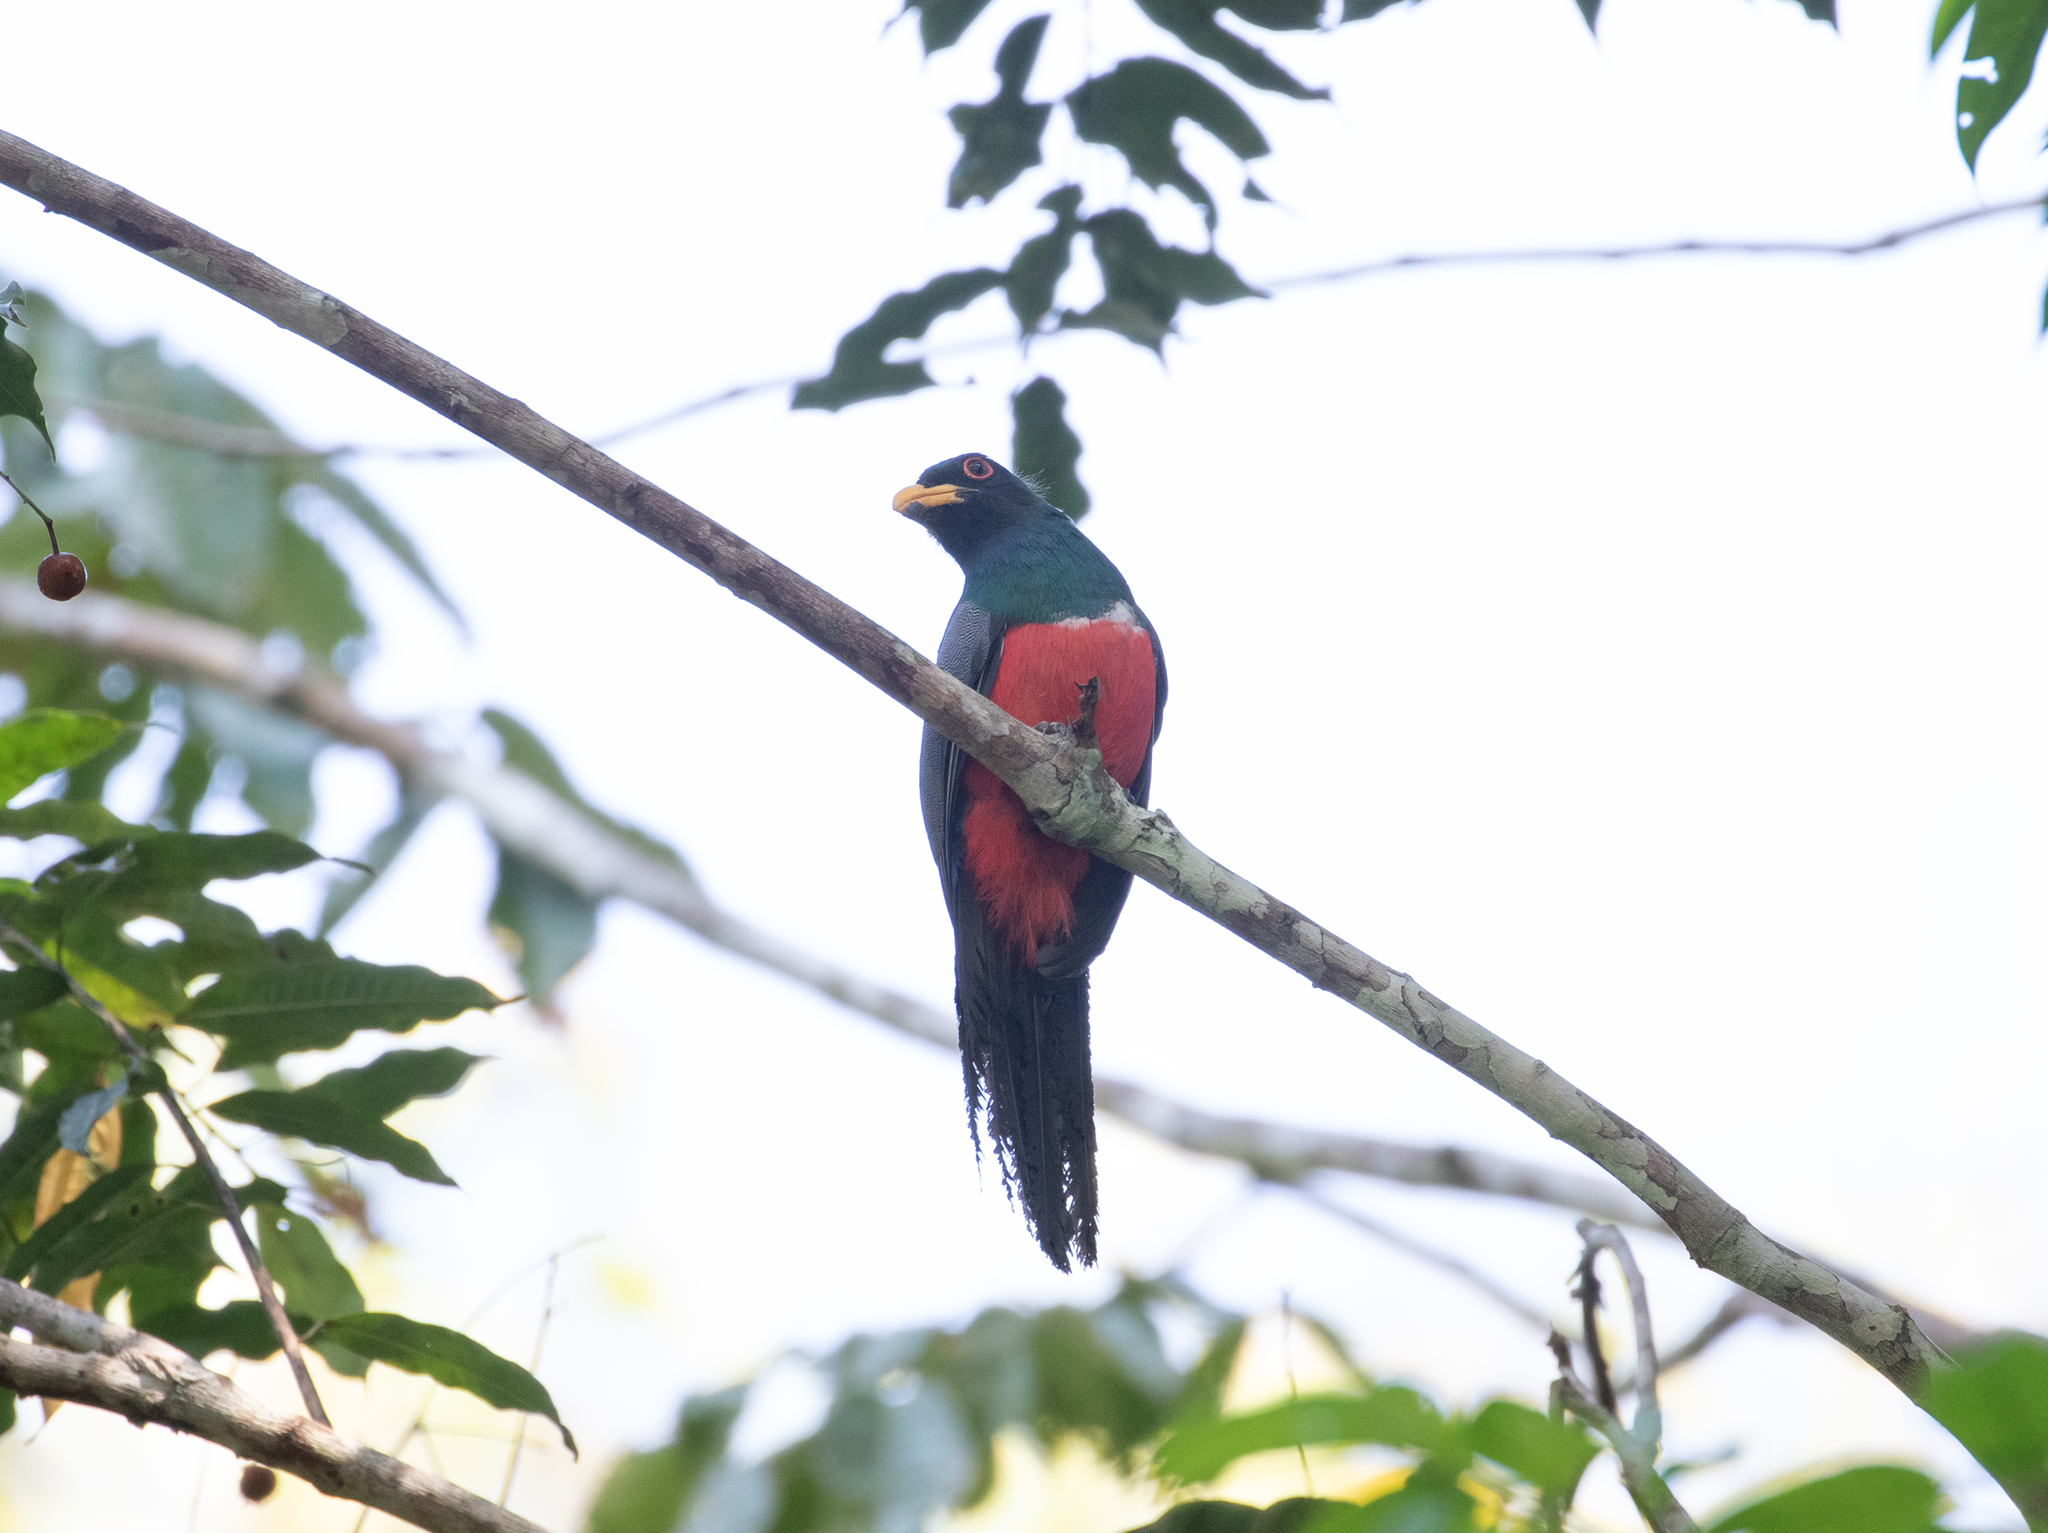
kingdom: Animalia
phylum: Chordata
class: Aves
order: Trogoniformes
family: Trogonidae
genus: Trogon
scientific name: Trogon melanurus
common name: Black-tailed trogon
